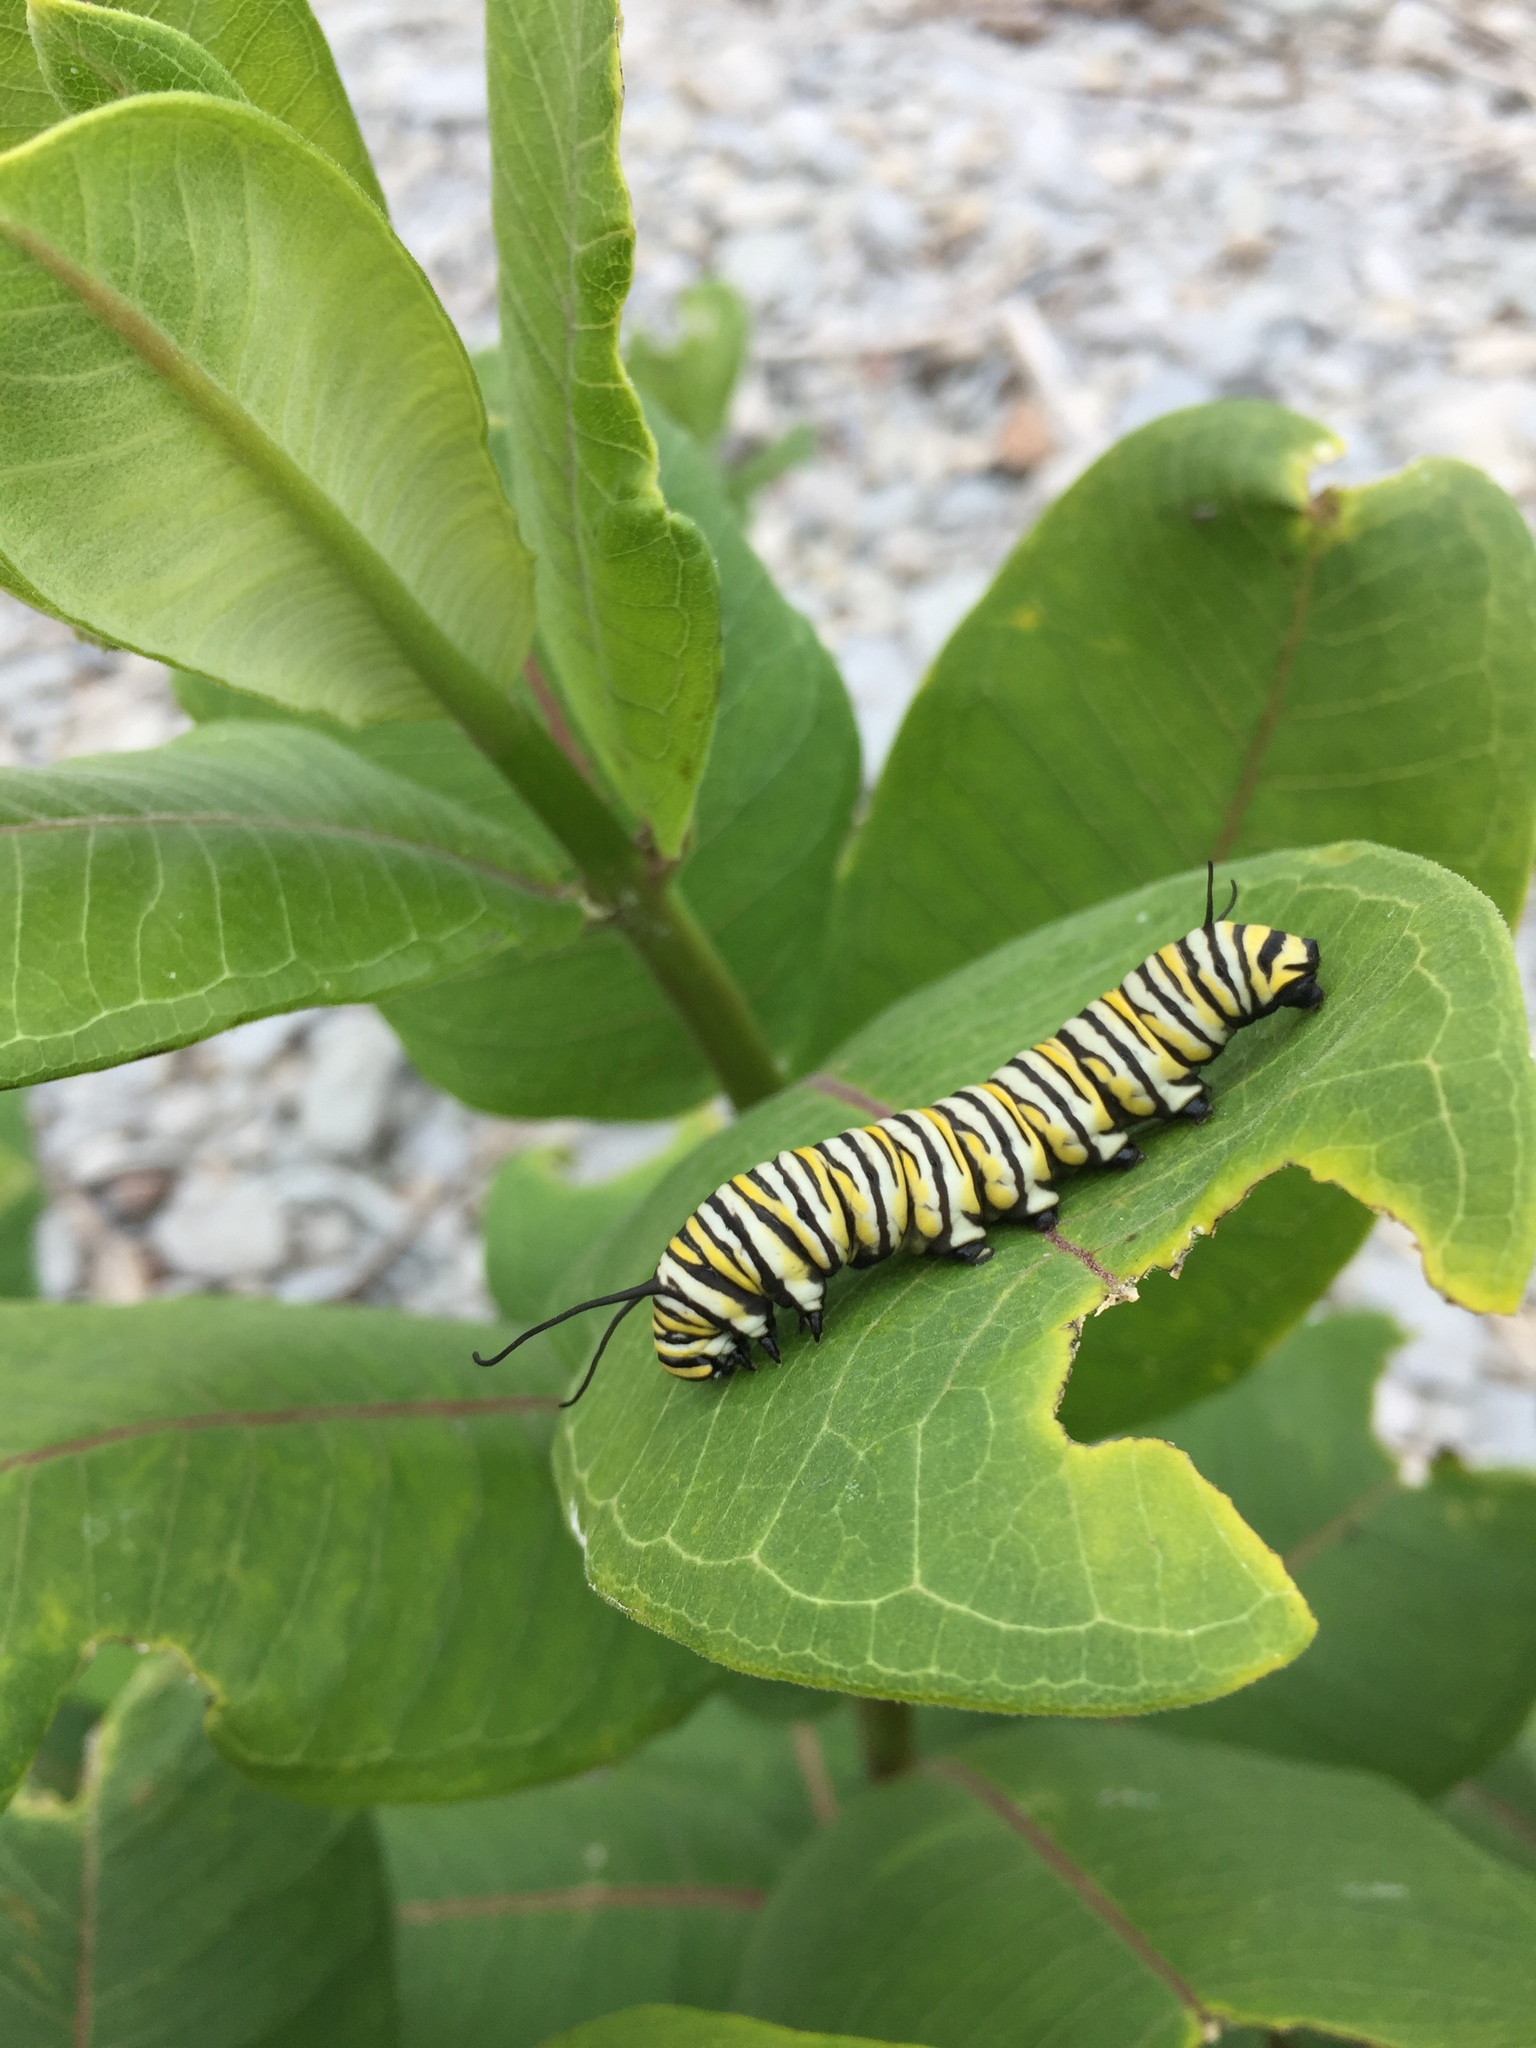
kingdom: Animalia
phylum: Arthropoda
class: Insecta
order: Lepidoptera
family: Nymphalidae
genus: Danaus
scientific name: Danaus plexippus
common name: Monarch
